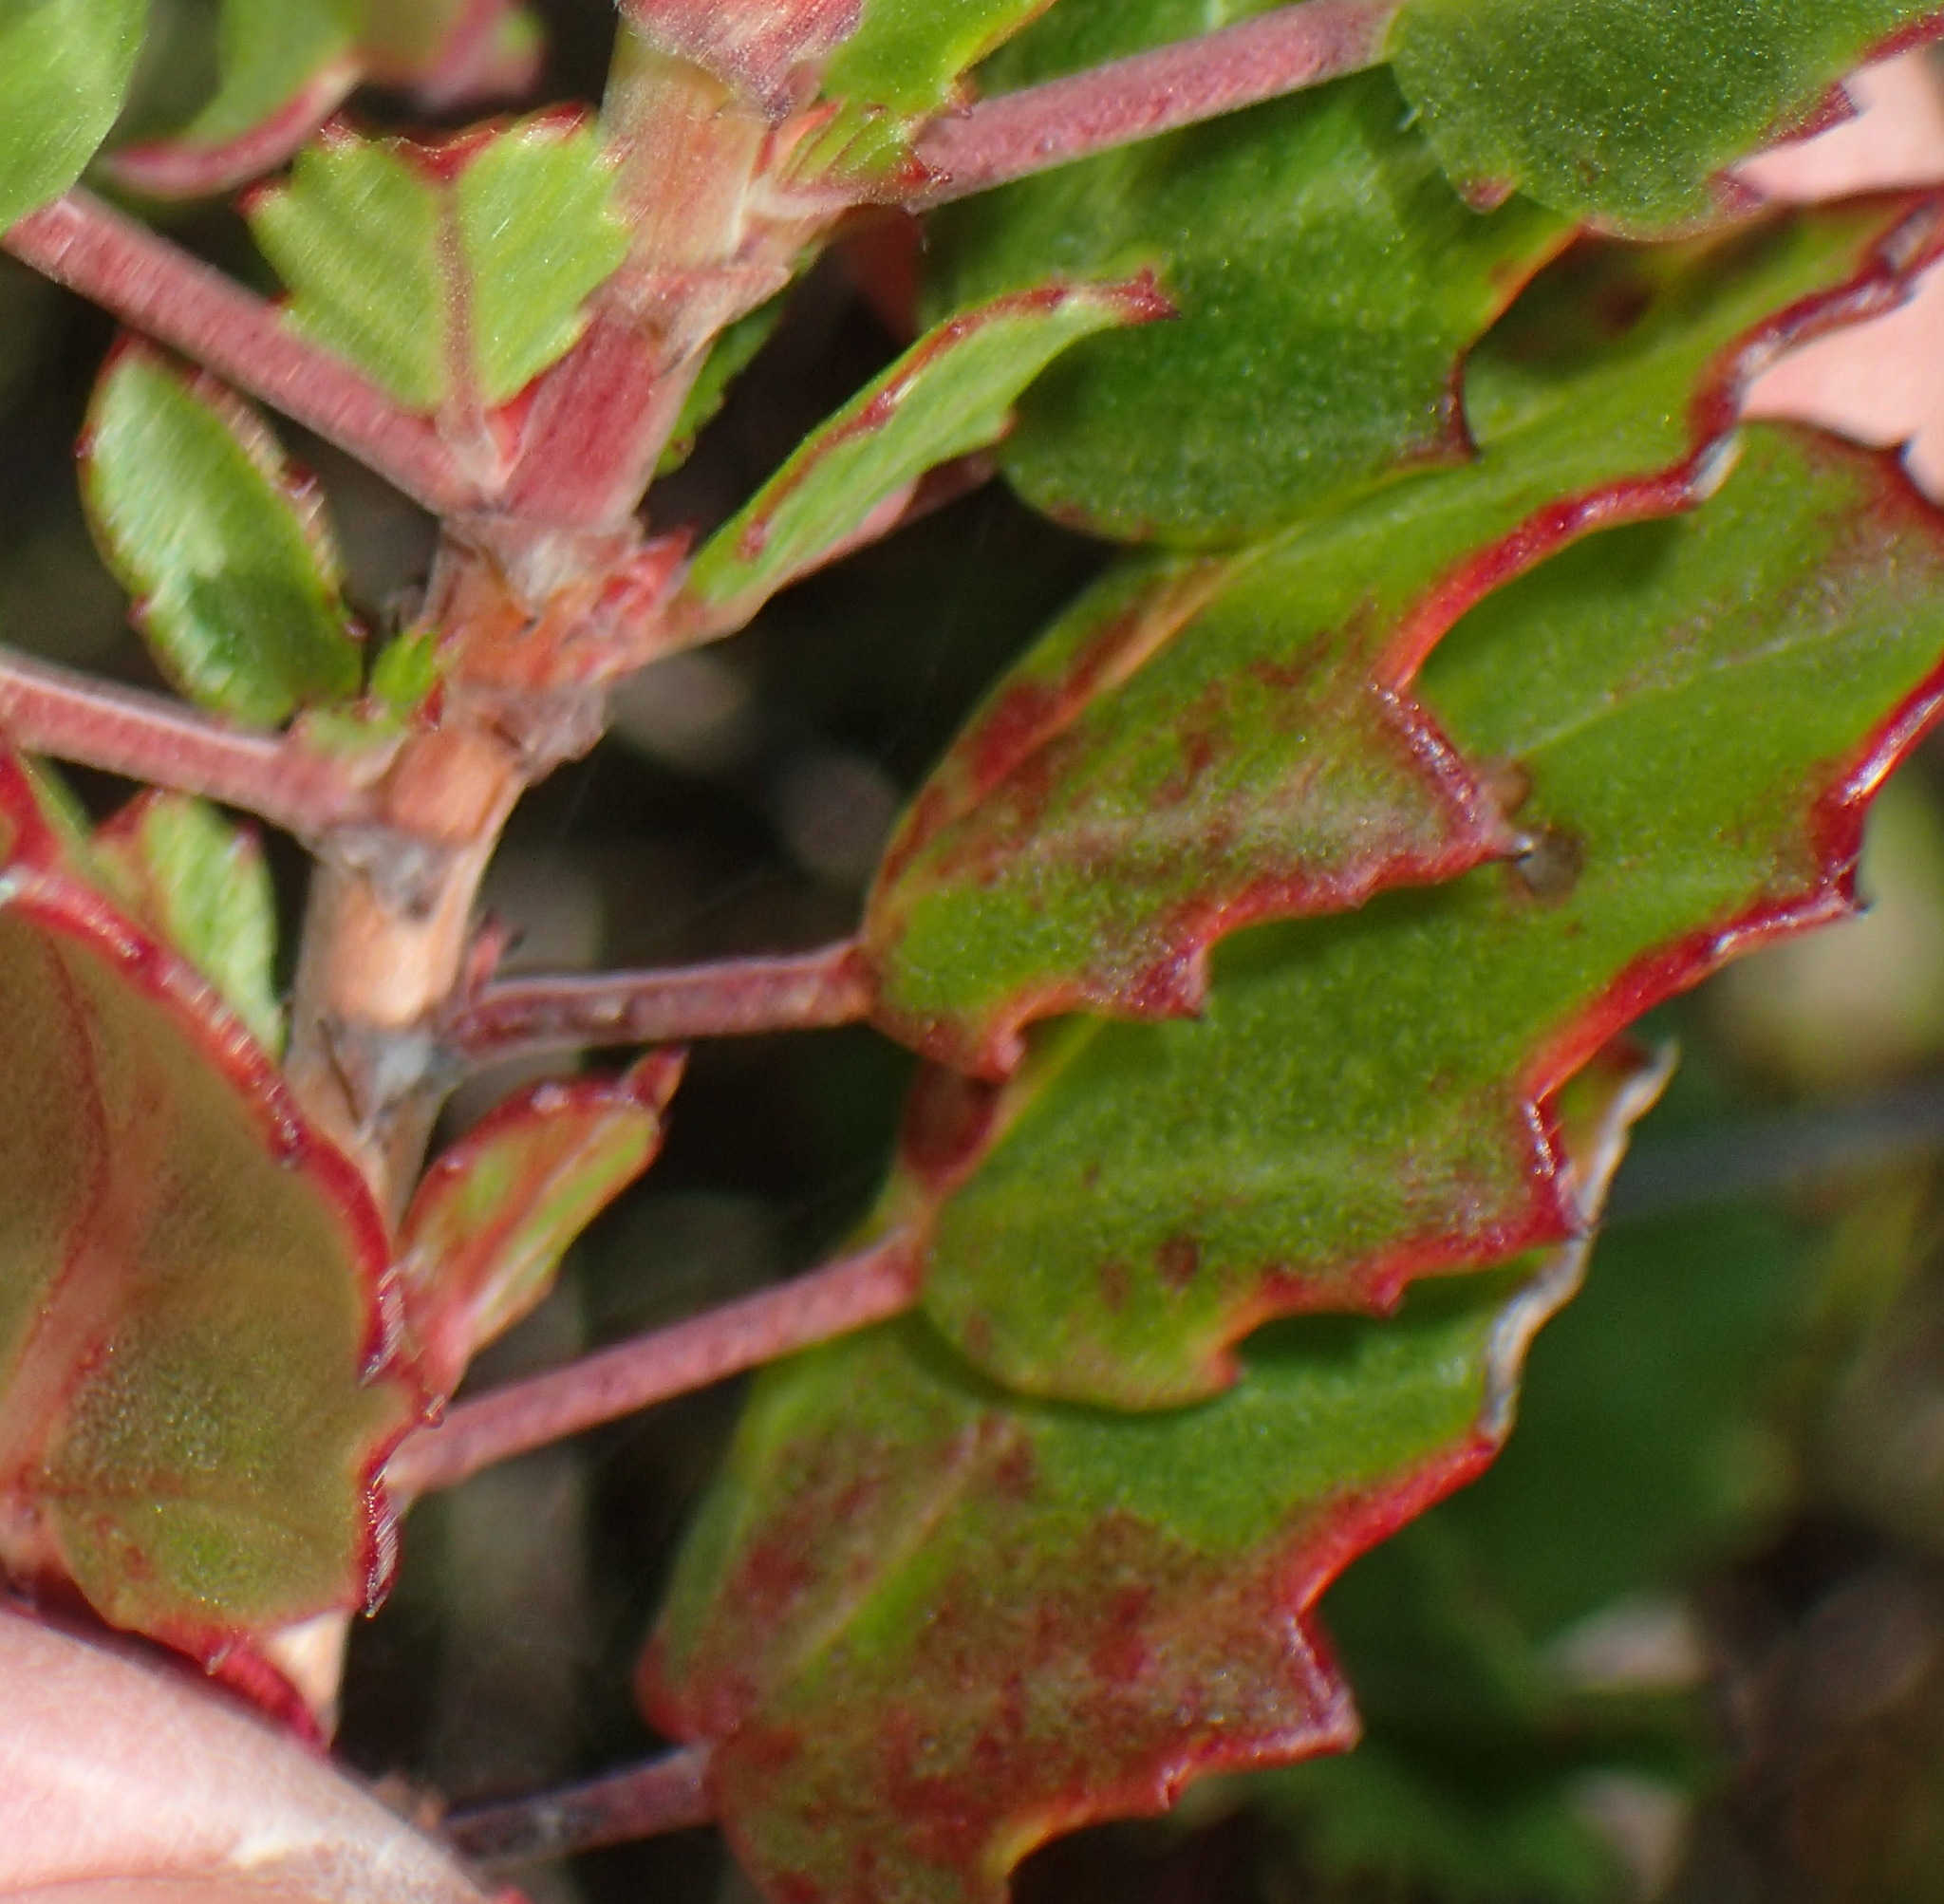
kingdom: Plantae
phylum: Tracheophyta
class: Magnoliopsida
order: Geraniales
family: Geraniaceae
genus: Pelargonium
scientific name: Pelargonium betulinum
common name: Birch-leaf pelargonium
